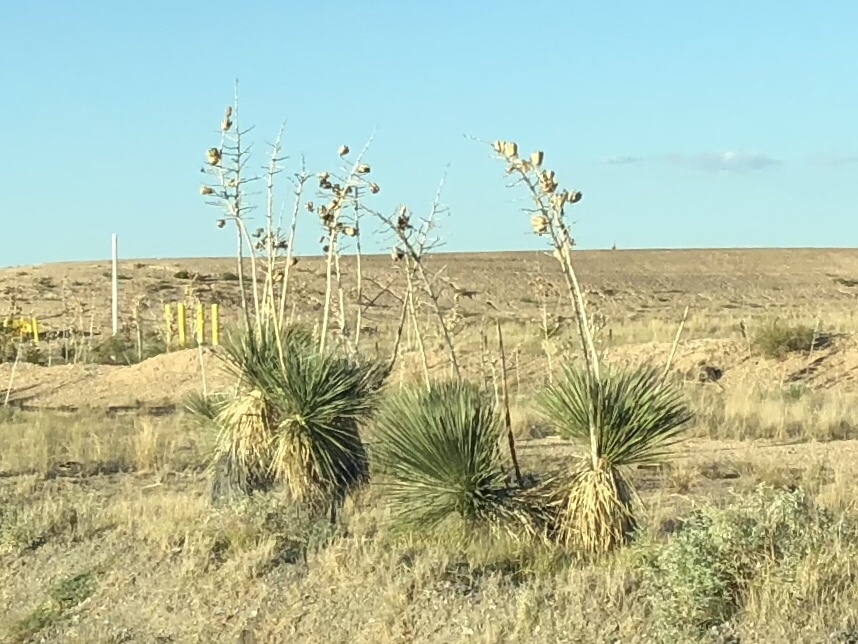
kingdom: Plantae
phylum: Tracheophyta
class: Liliopsida
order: Asparagales
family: Asparagaceae
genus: Yucca
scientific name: Yucca elata
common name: Palmella
